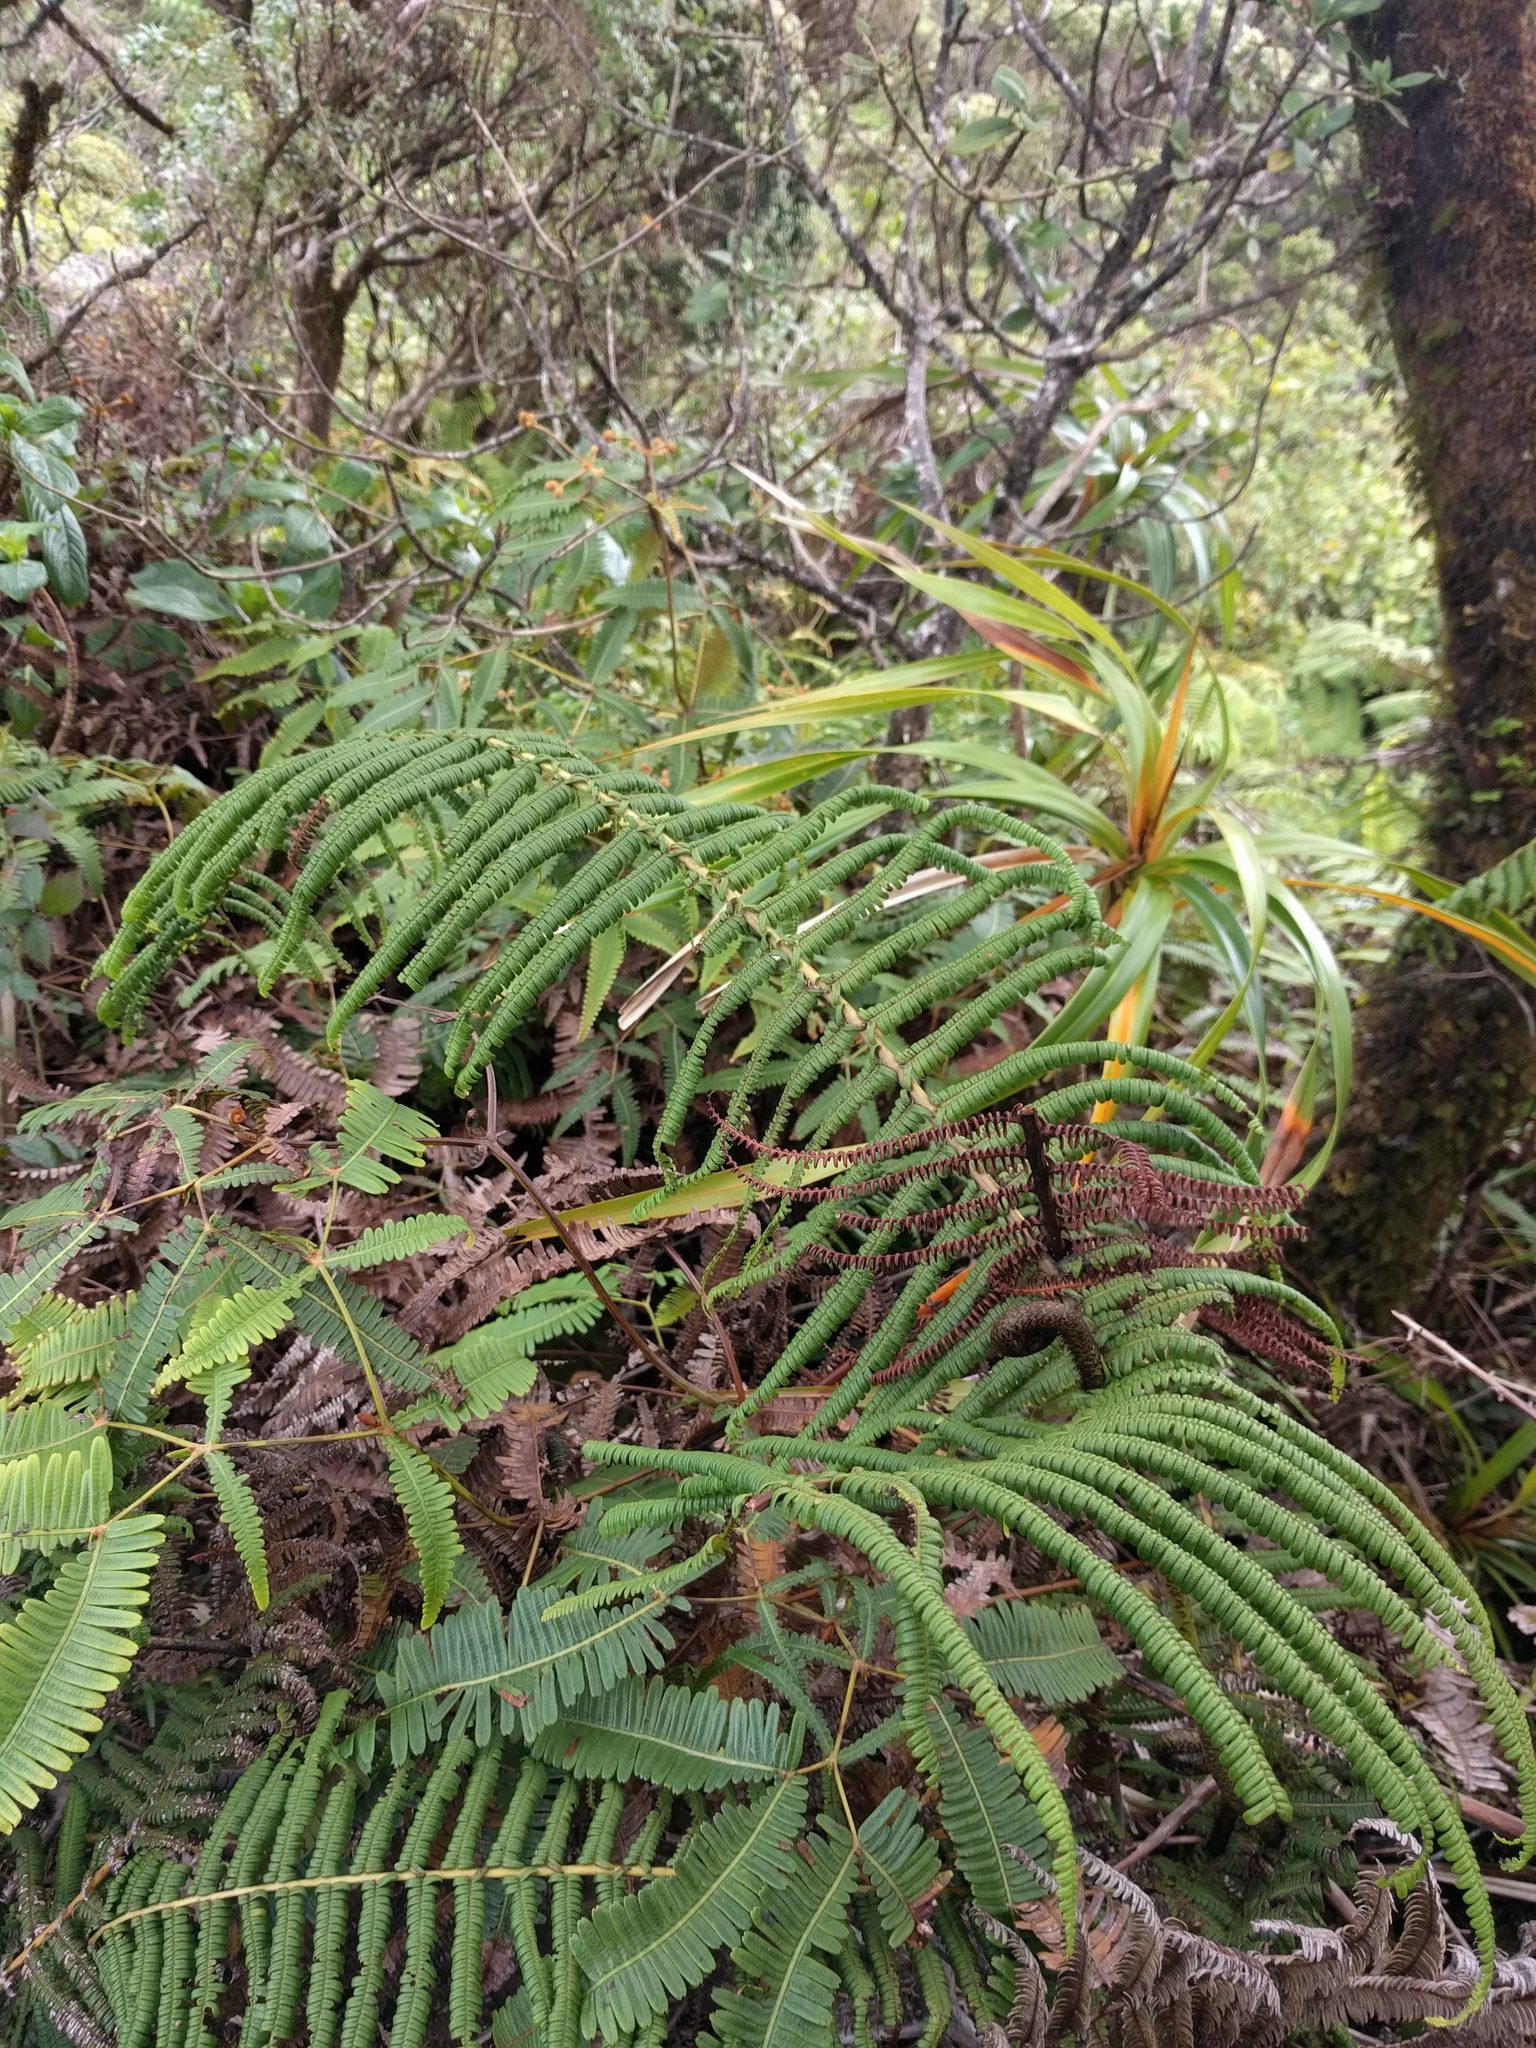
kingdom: Plantae
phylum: Tracheophyta
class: Polypodiopsida
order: Gleicheniales
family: Gleicheniaceae
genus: Diplopterygium
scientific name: Diplopterygium pinnatum
